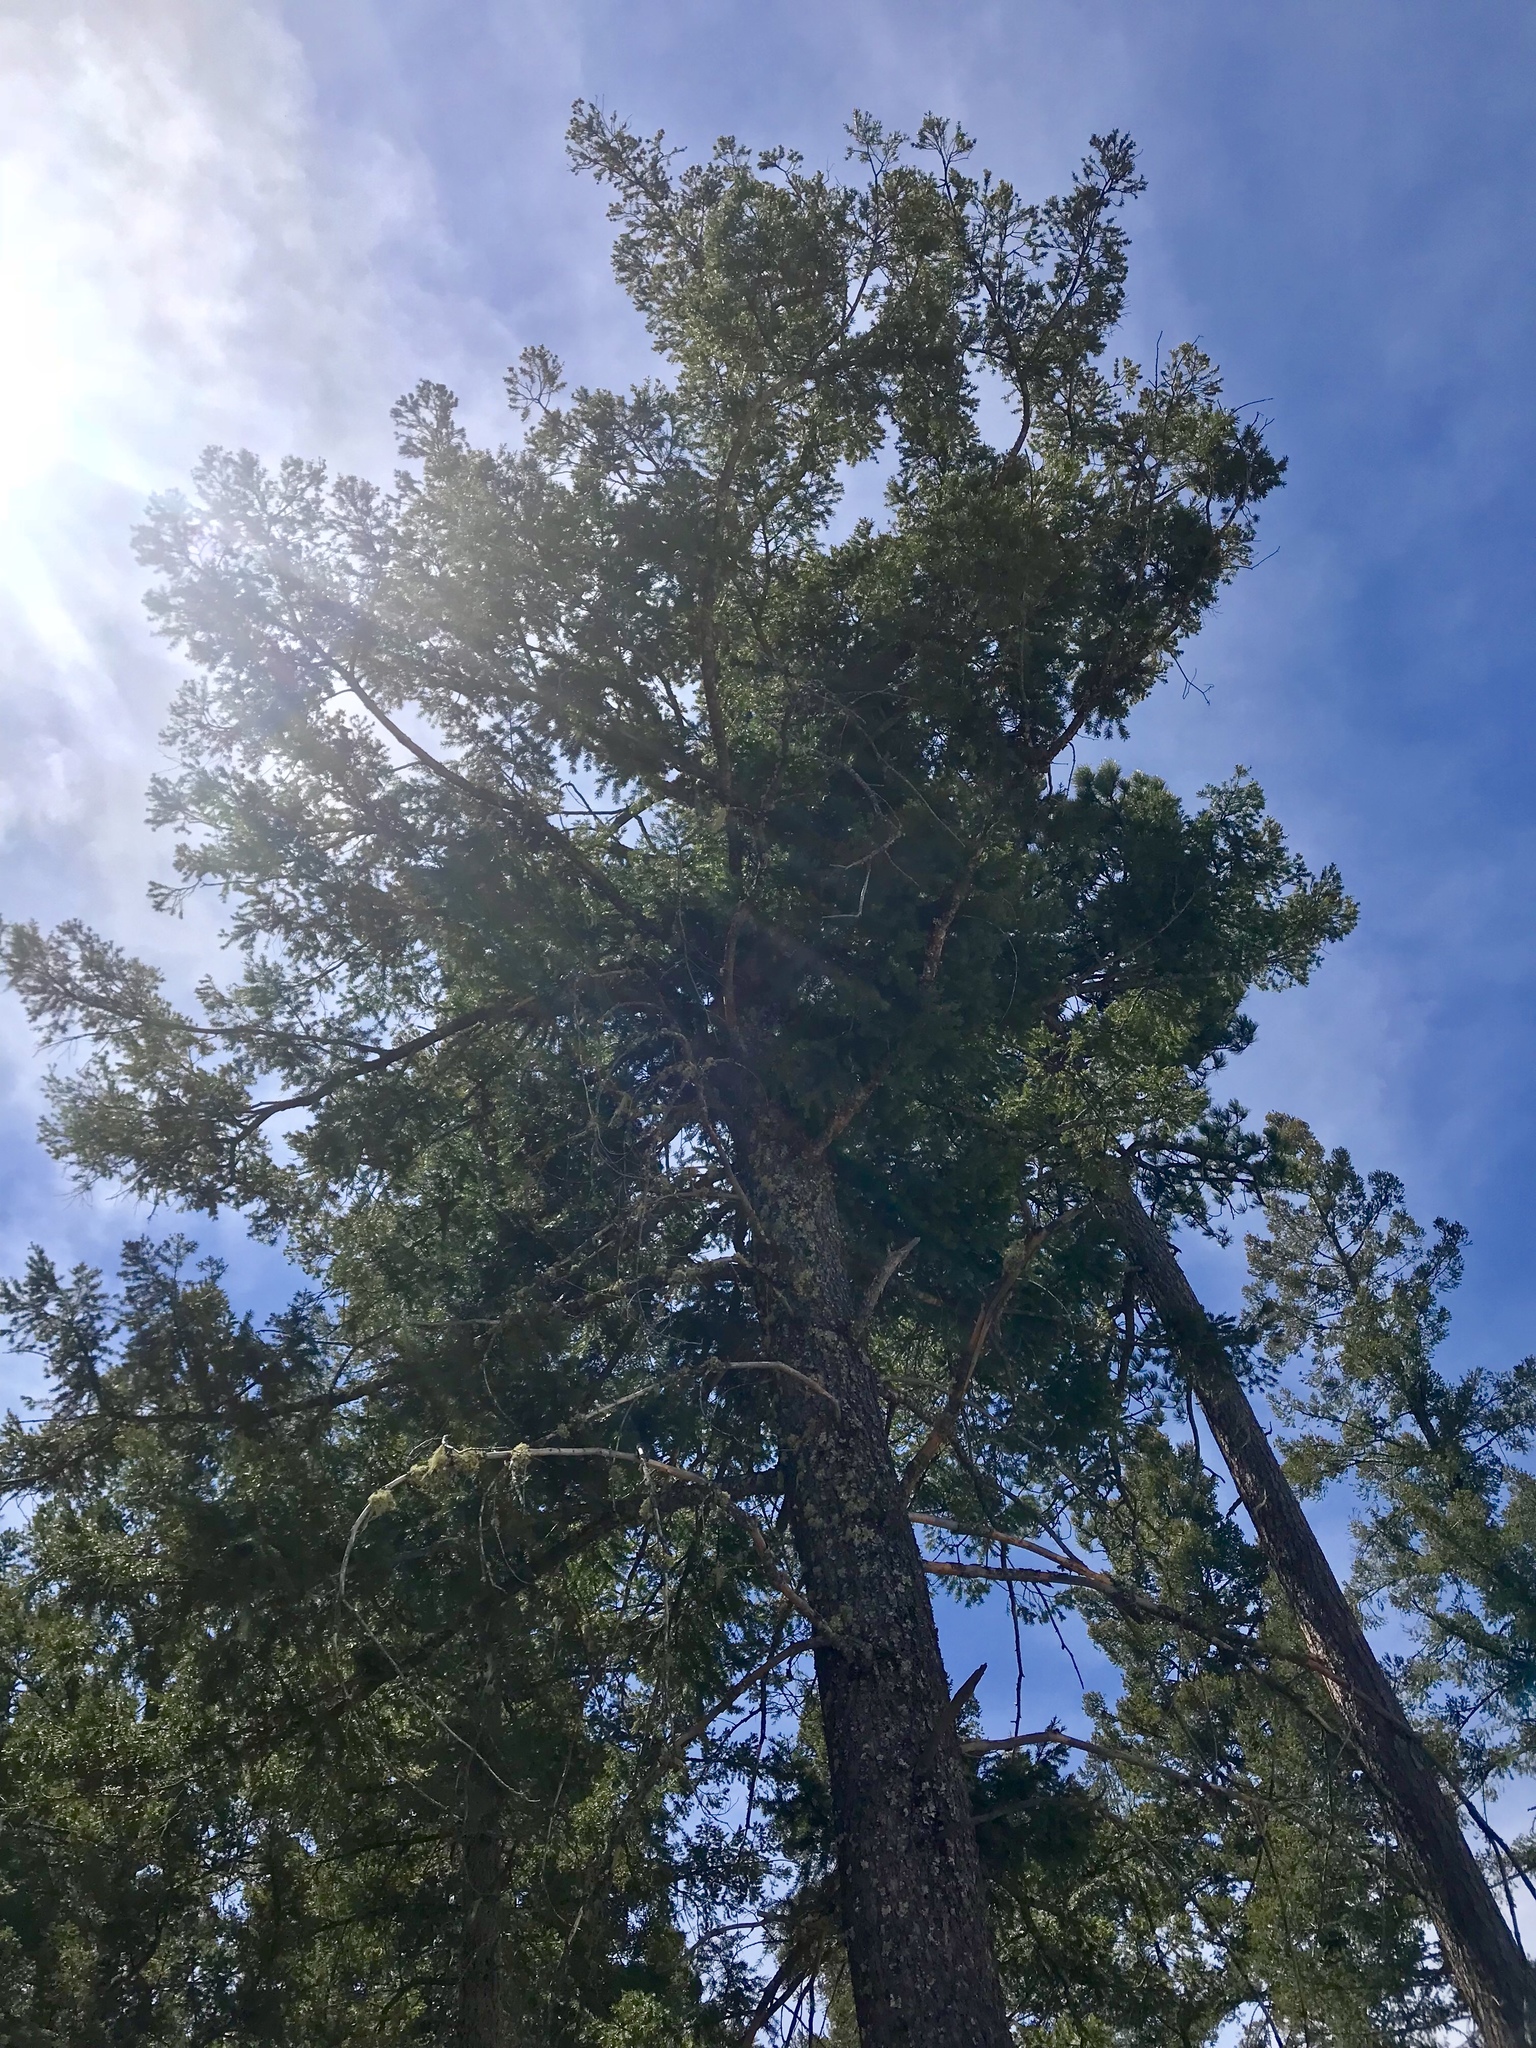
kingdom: Plantae
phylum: Tracheophyta
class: Pinopsida
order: Pinales
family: Pinaceae
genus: Pseudotsuga
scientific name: Pseudotsuga menziesii
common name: Douglas fir
